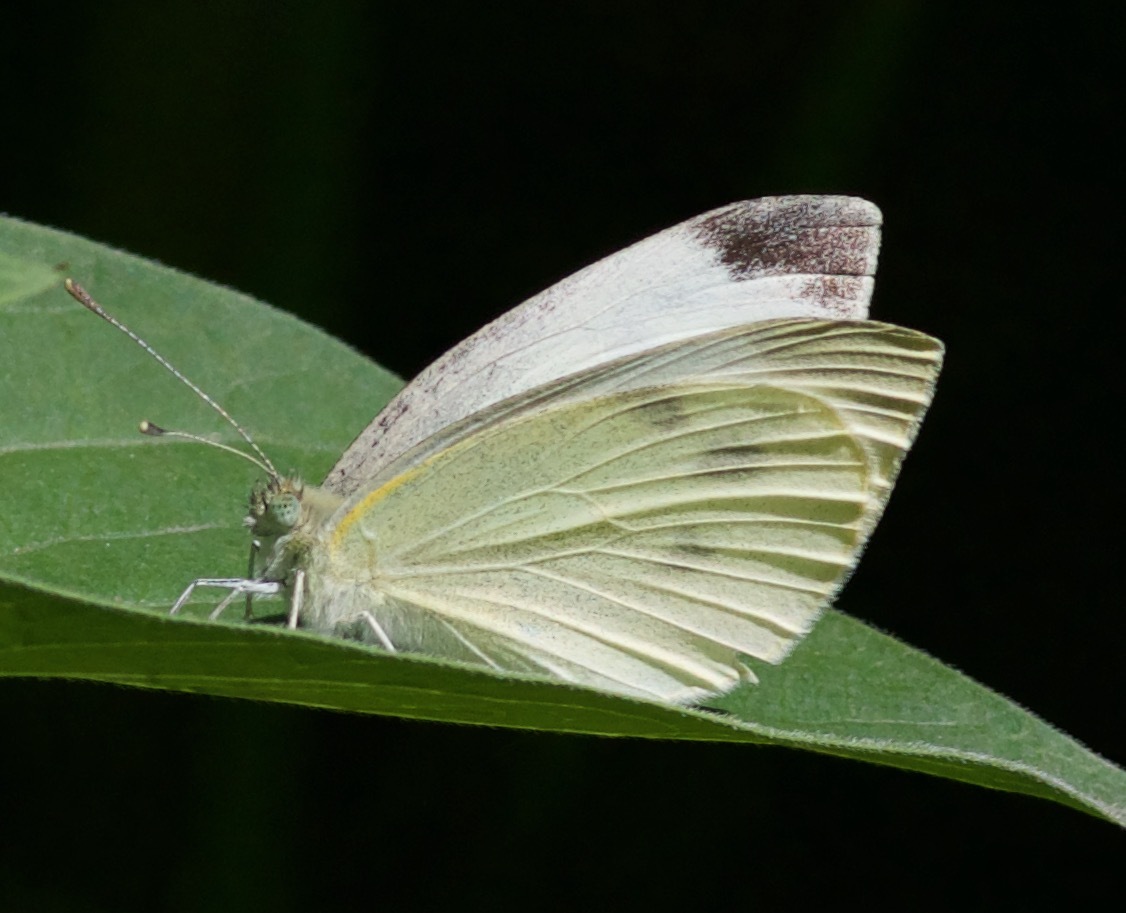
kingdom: Animalia
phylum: Arthropoda
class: Insecta
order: Lepidoptera
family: Pieridae
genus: Pieris
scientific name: Pieris rapae
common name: Small white
